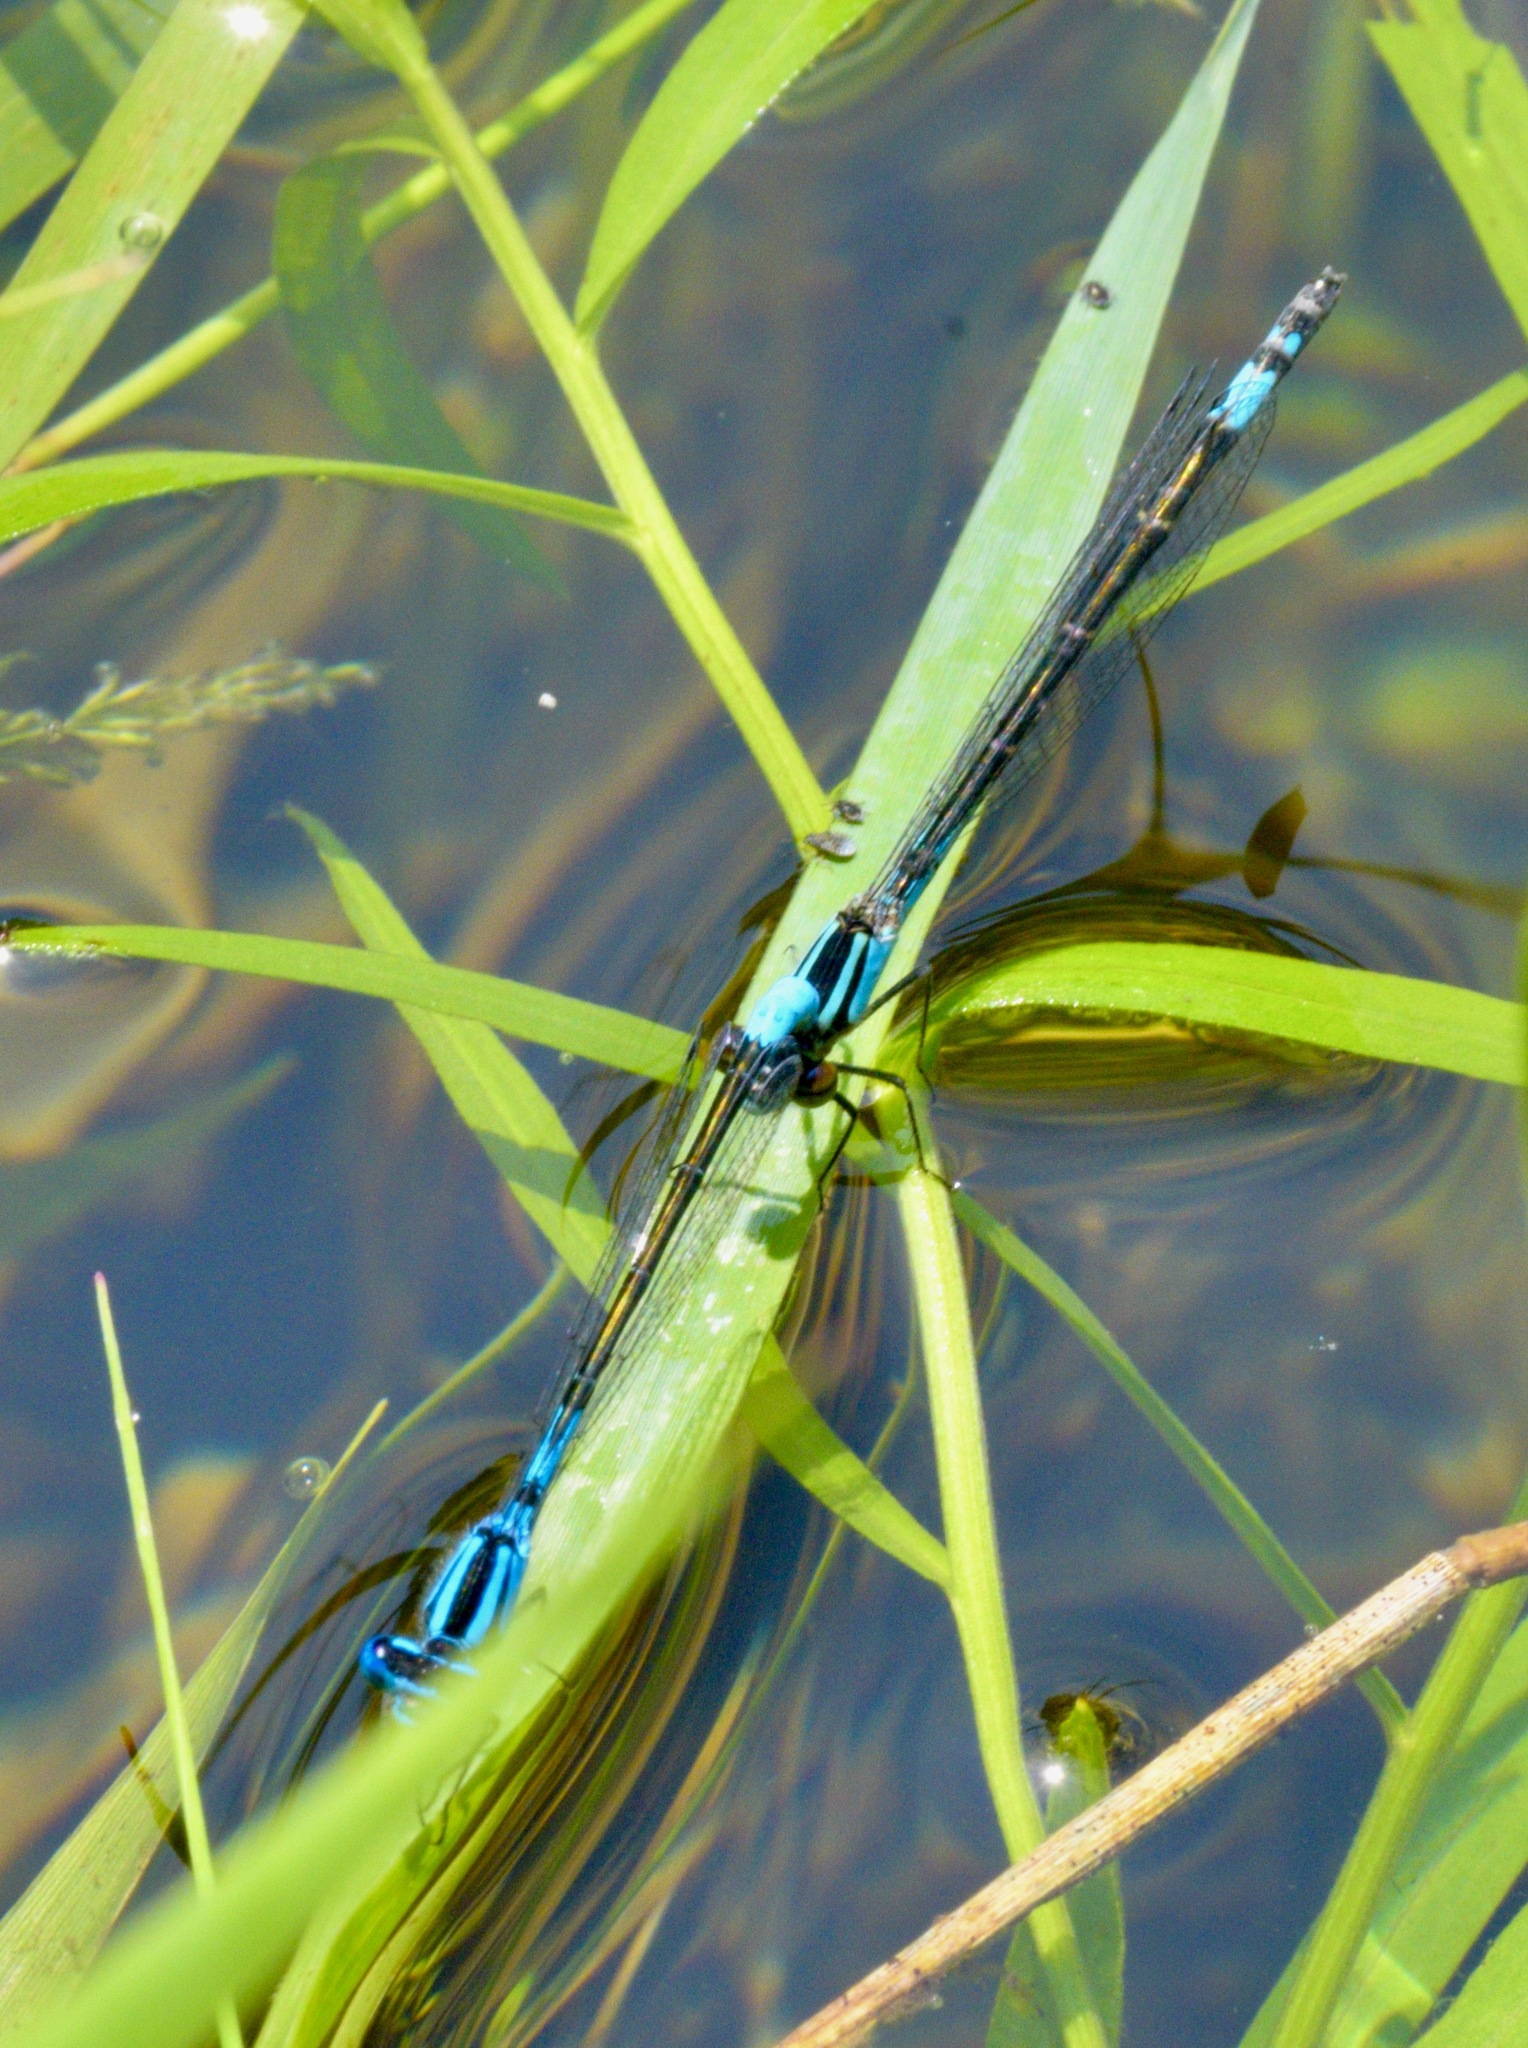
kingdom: Animalia
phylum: Arthropoda
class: Insecta
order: Odonata
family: Coenagrionidae
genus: Enallagma
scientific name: Enallagma aspersum
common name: Azure bluet
